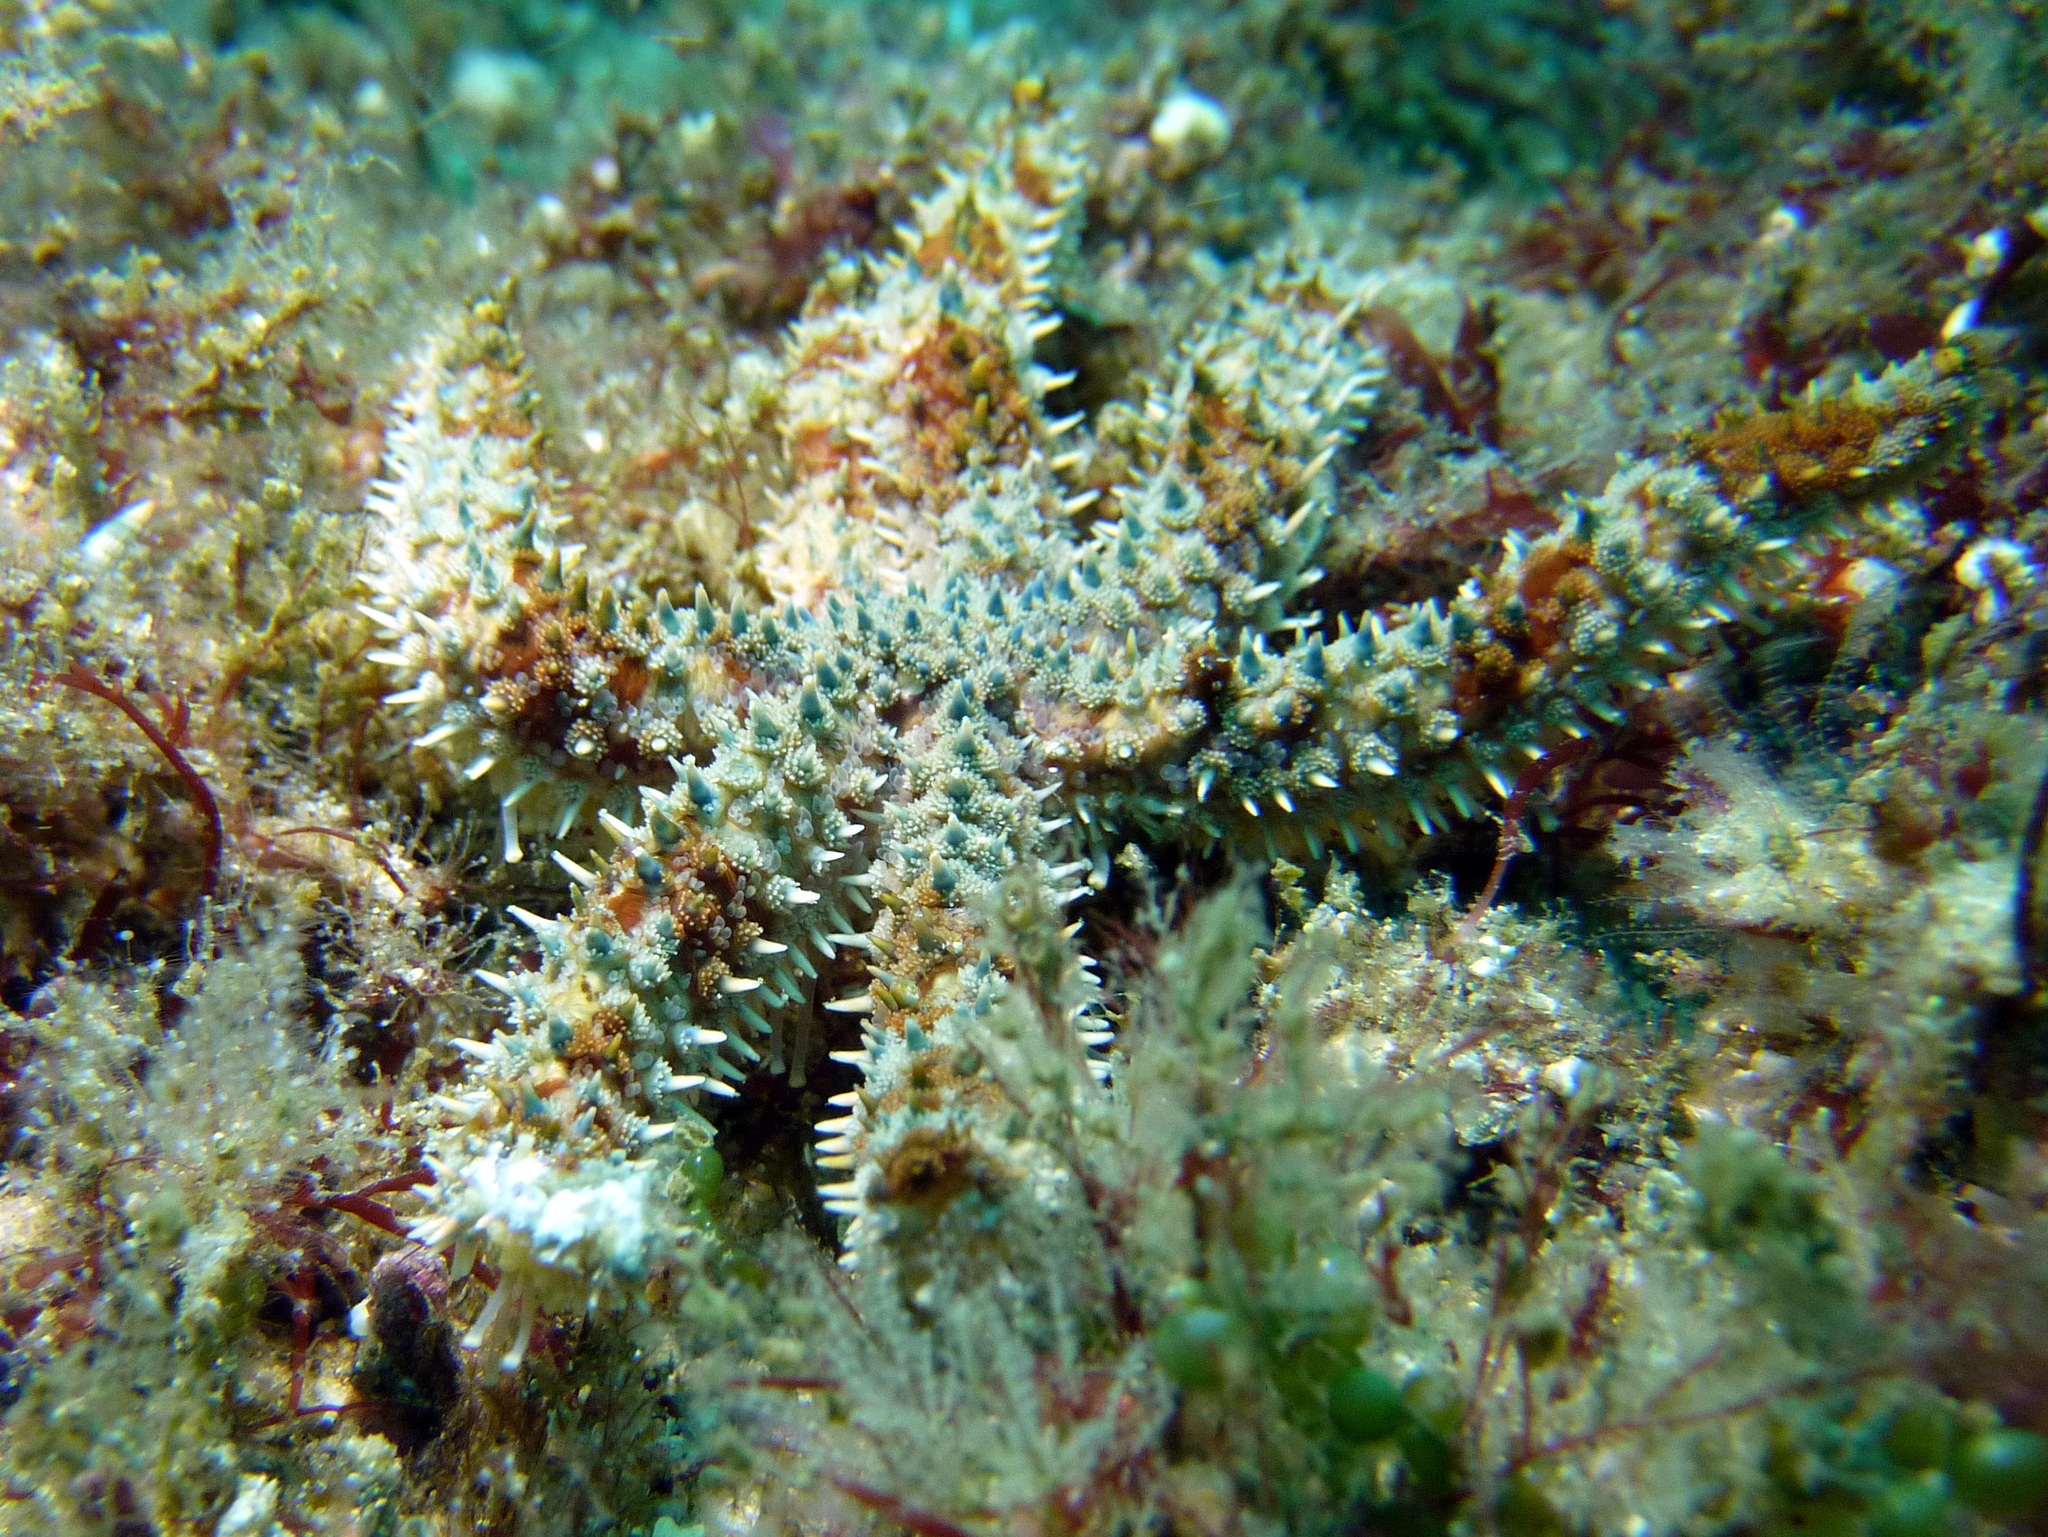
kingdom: Animalia
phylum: Echinodermata
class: Asteroidea
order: Forcipulatida
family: Asteriidae
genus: Coscinasterias
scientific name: Coscinasterias muricata
